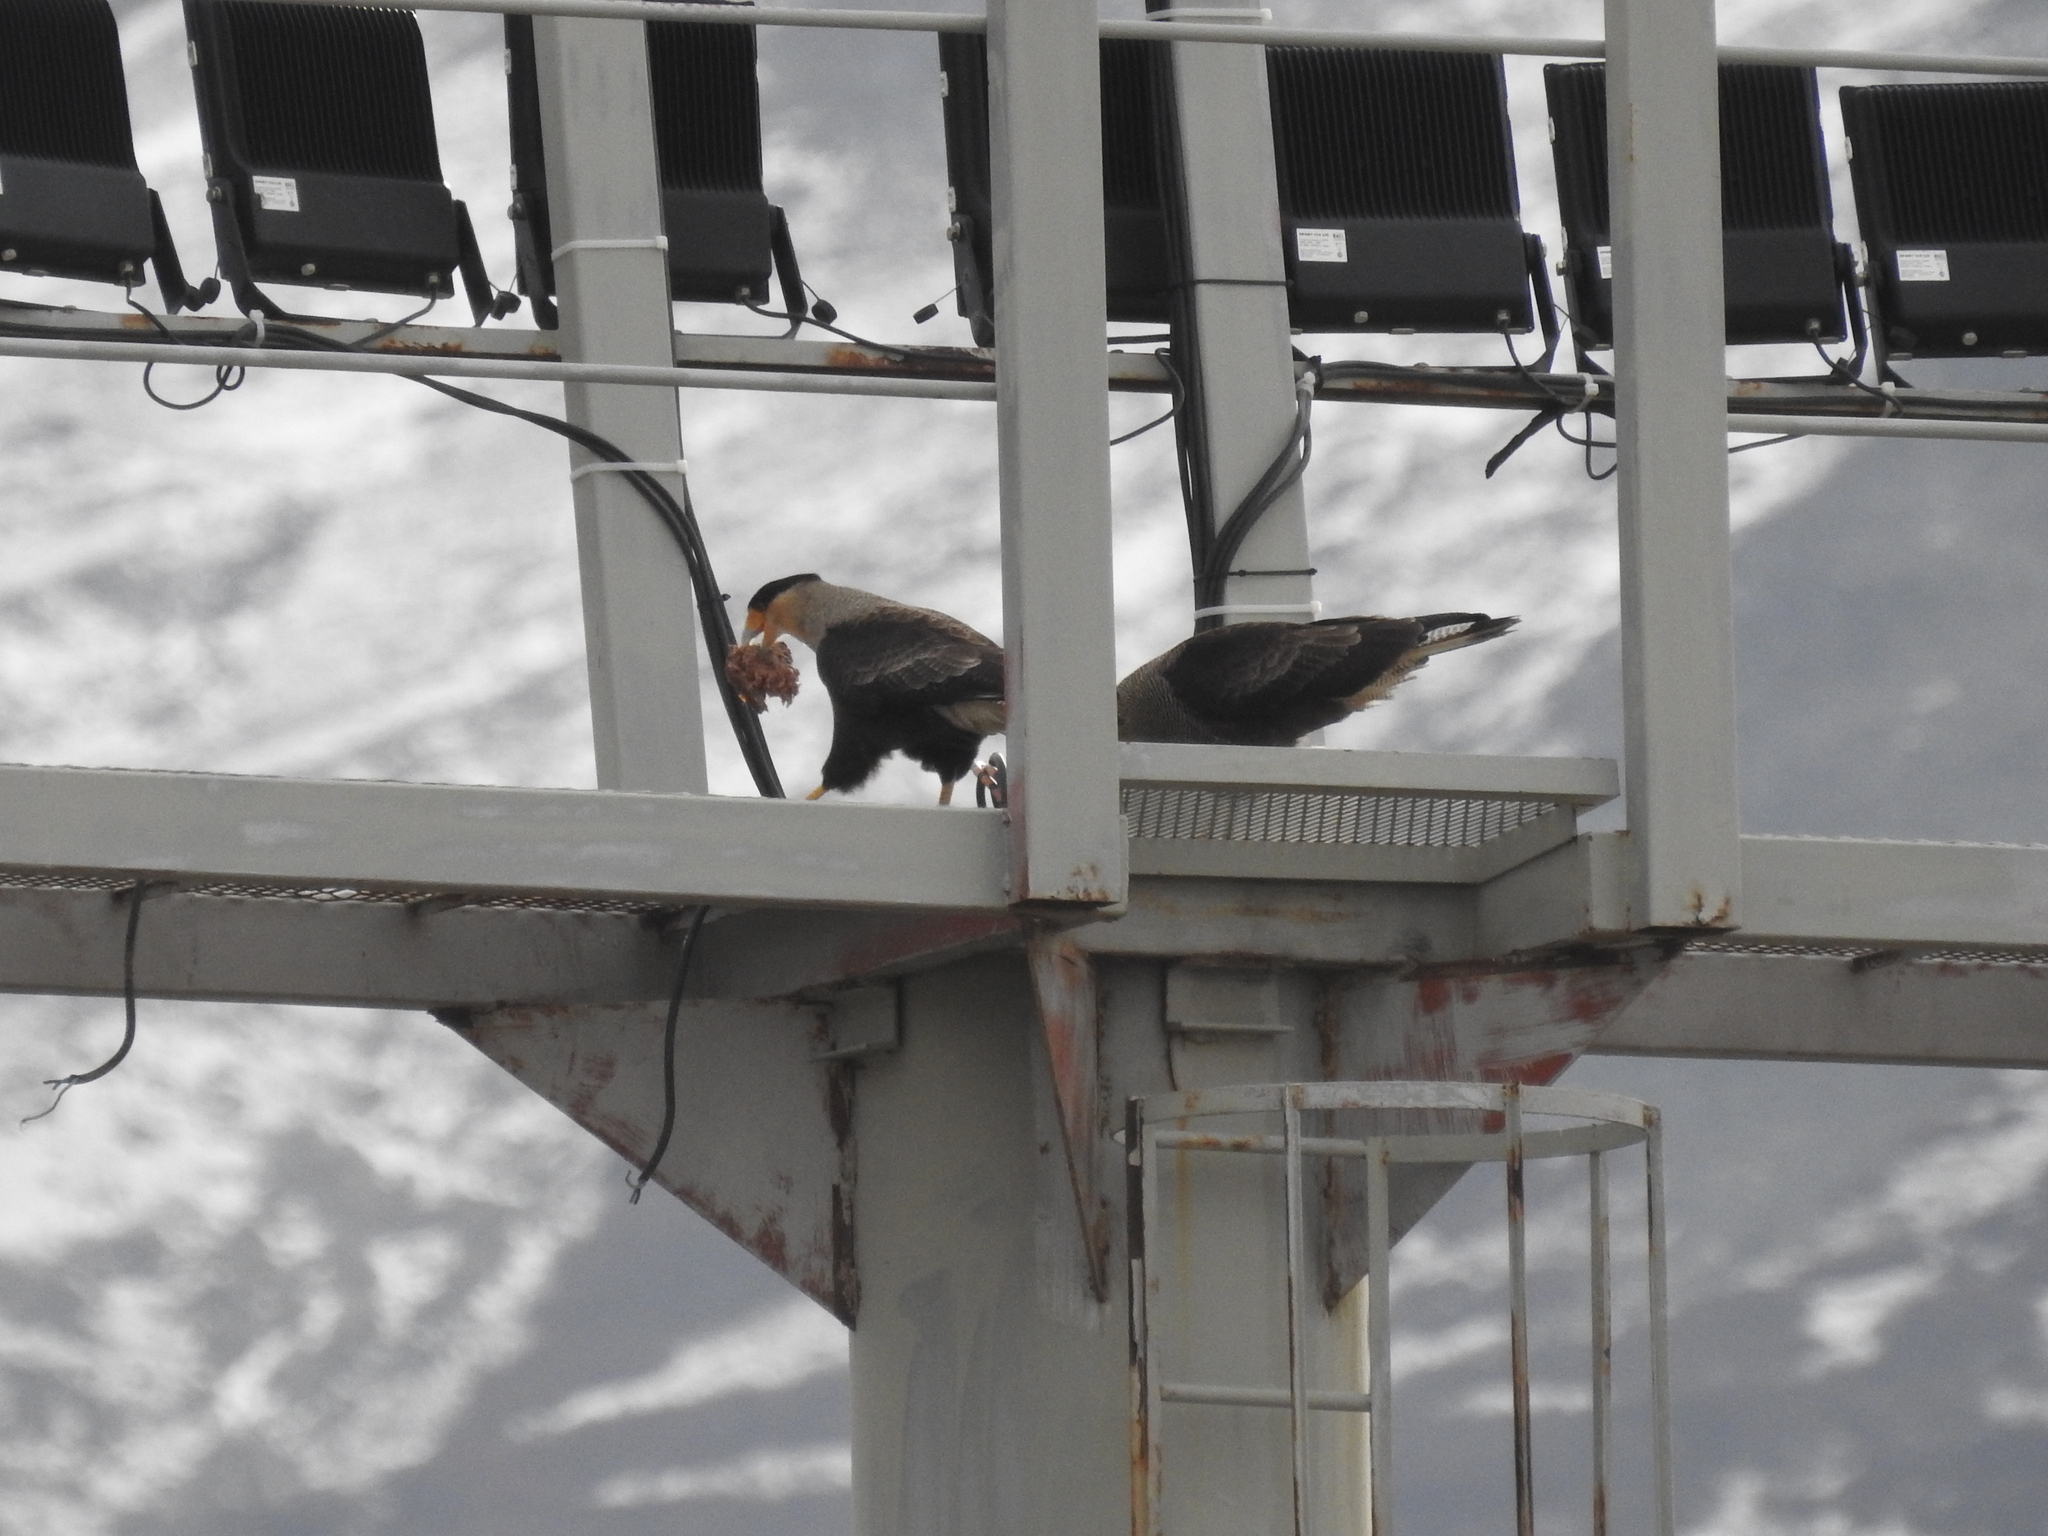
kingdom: Animalia
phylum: Chordata
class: Aves
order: Falconiformes
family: Falconidae
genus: Caracara
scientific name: Caracara plancus
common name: Southern caracara
